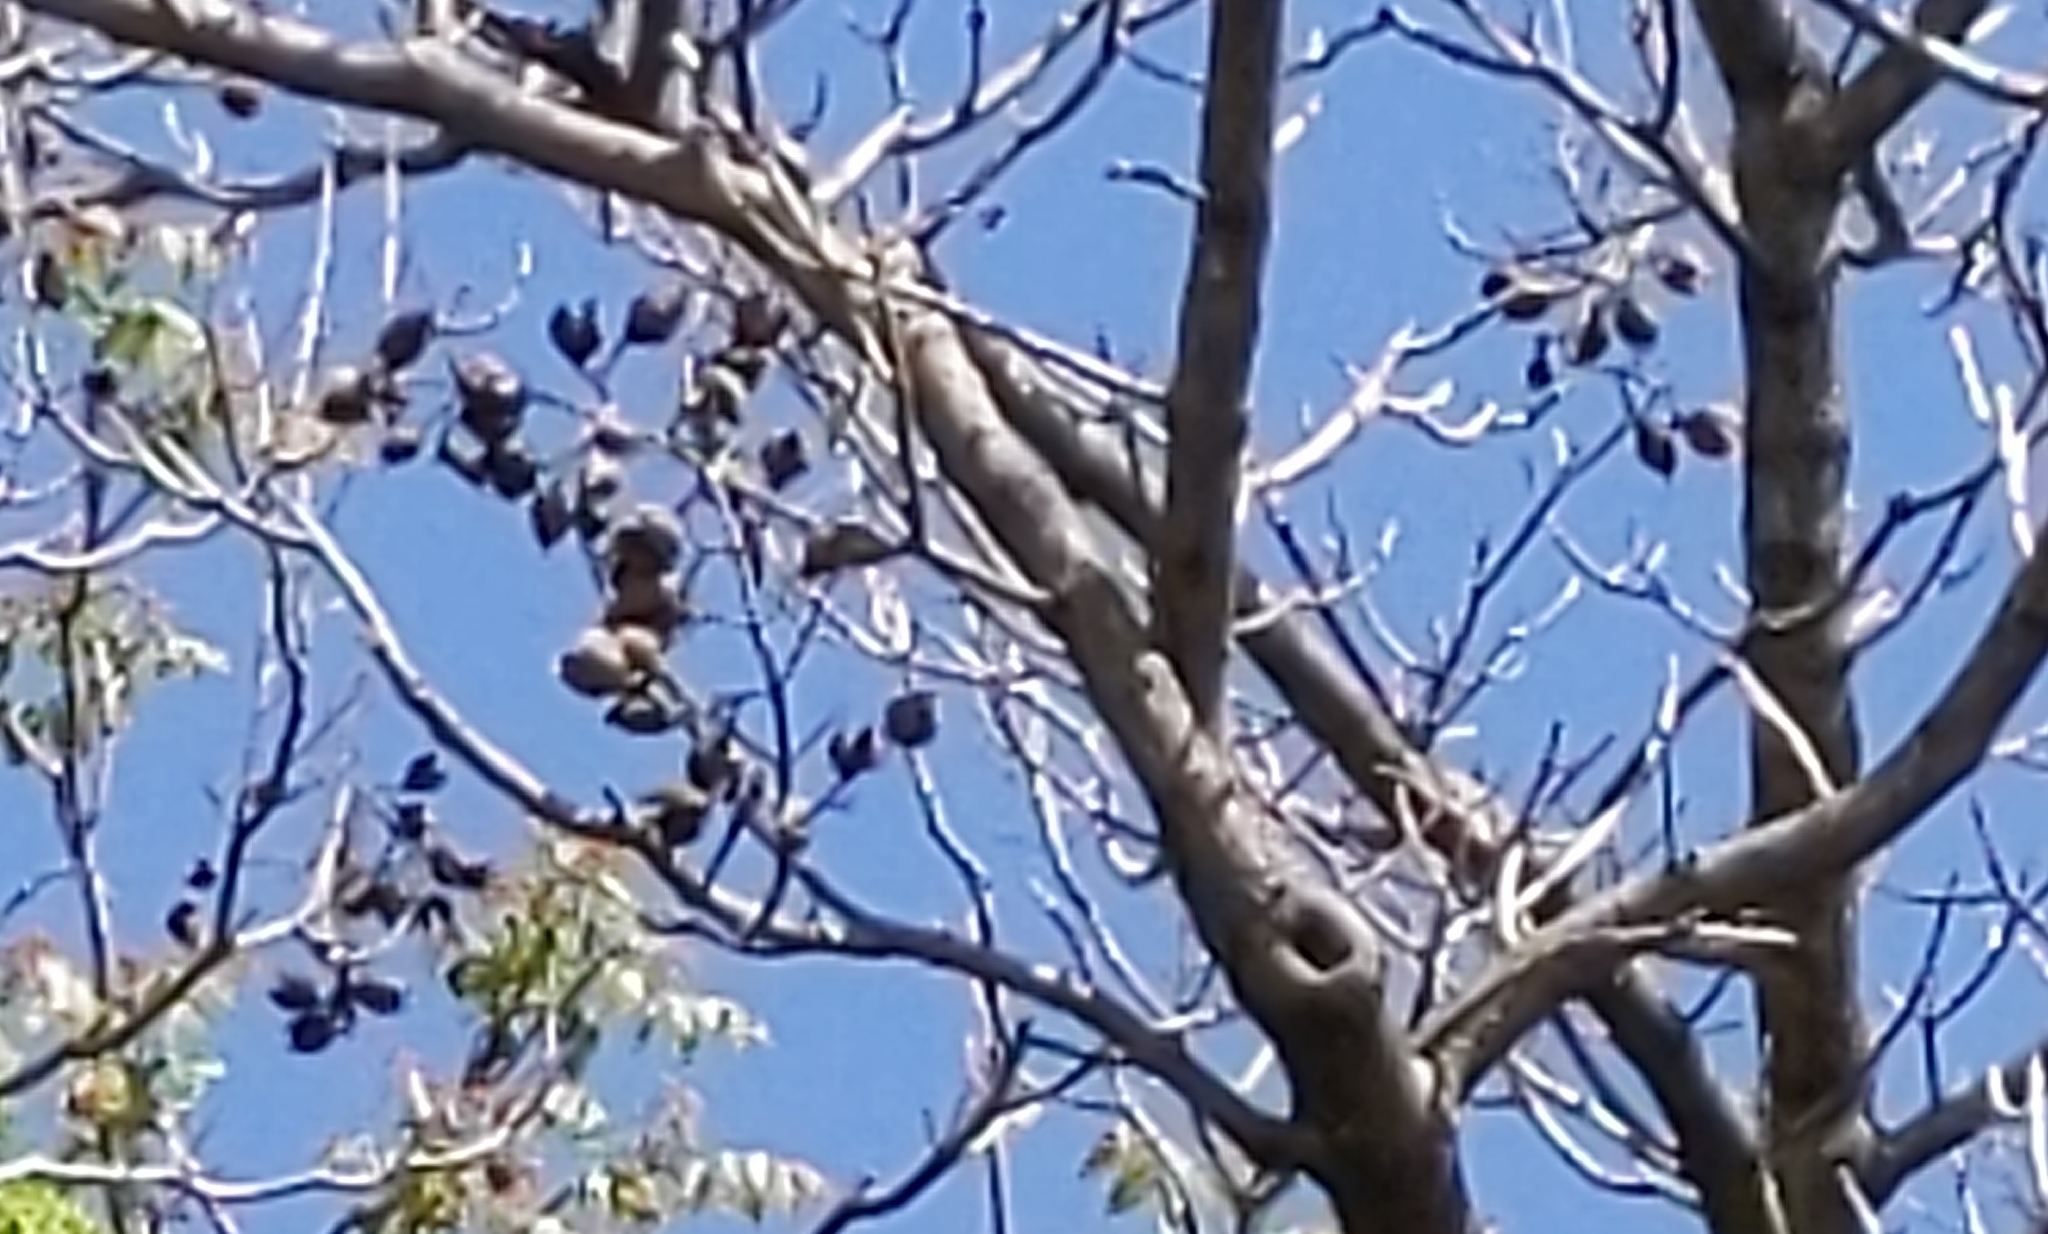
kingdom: Plantae
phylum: Tracheophyta
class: Magnoliopsida
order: Lamiales
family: Paulowniaceae
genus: Paulownia
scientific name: Paulownia tomentosa
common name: Foxglove-tree
